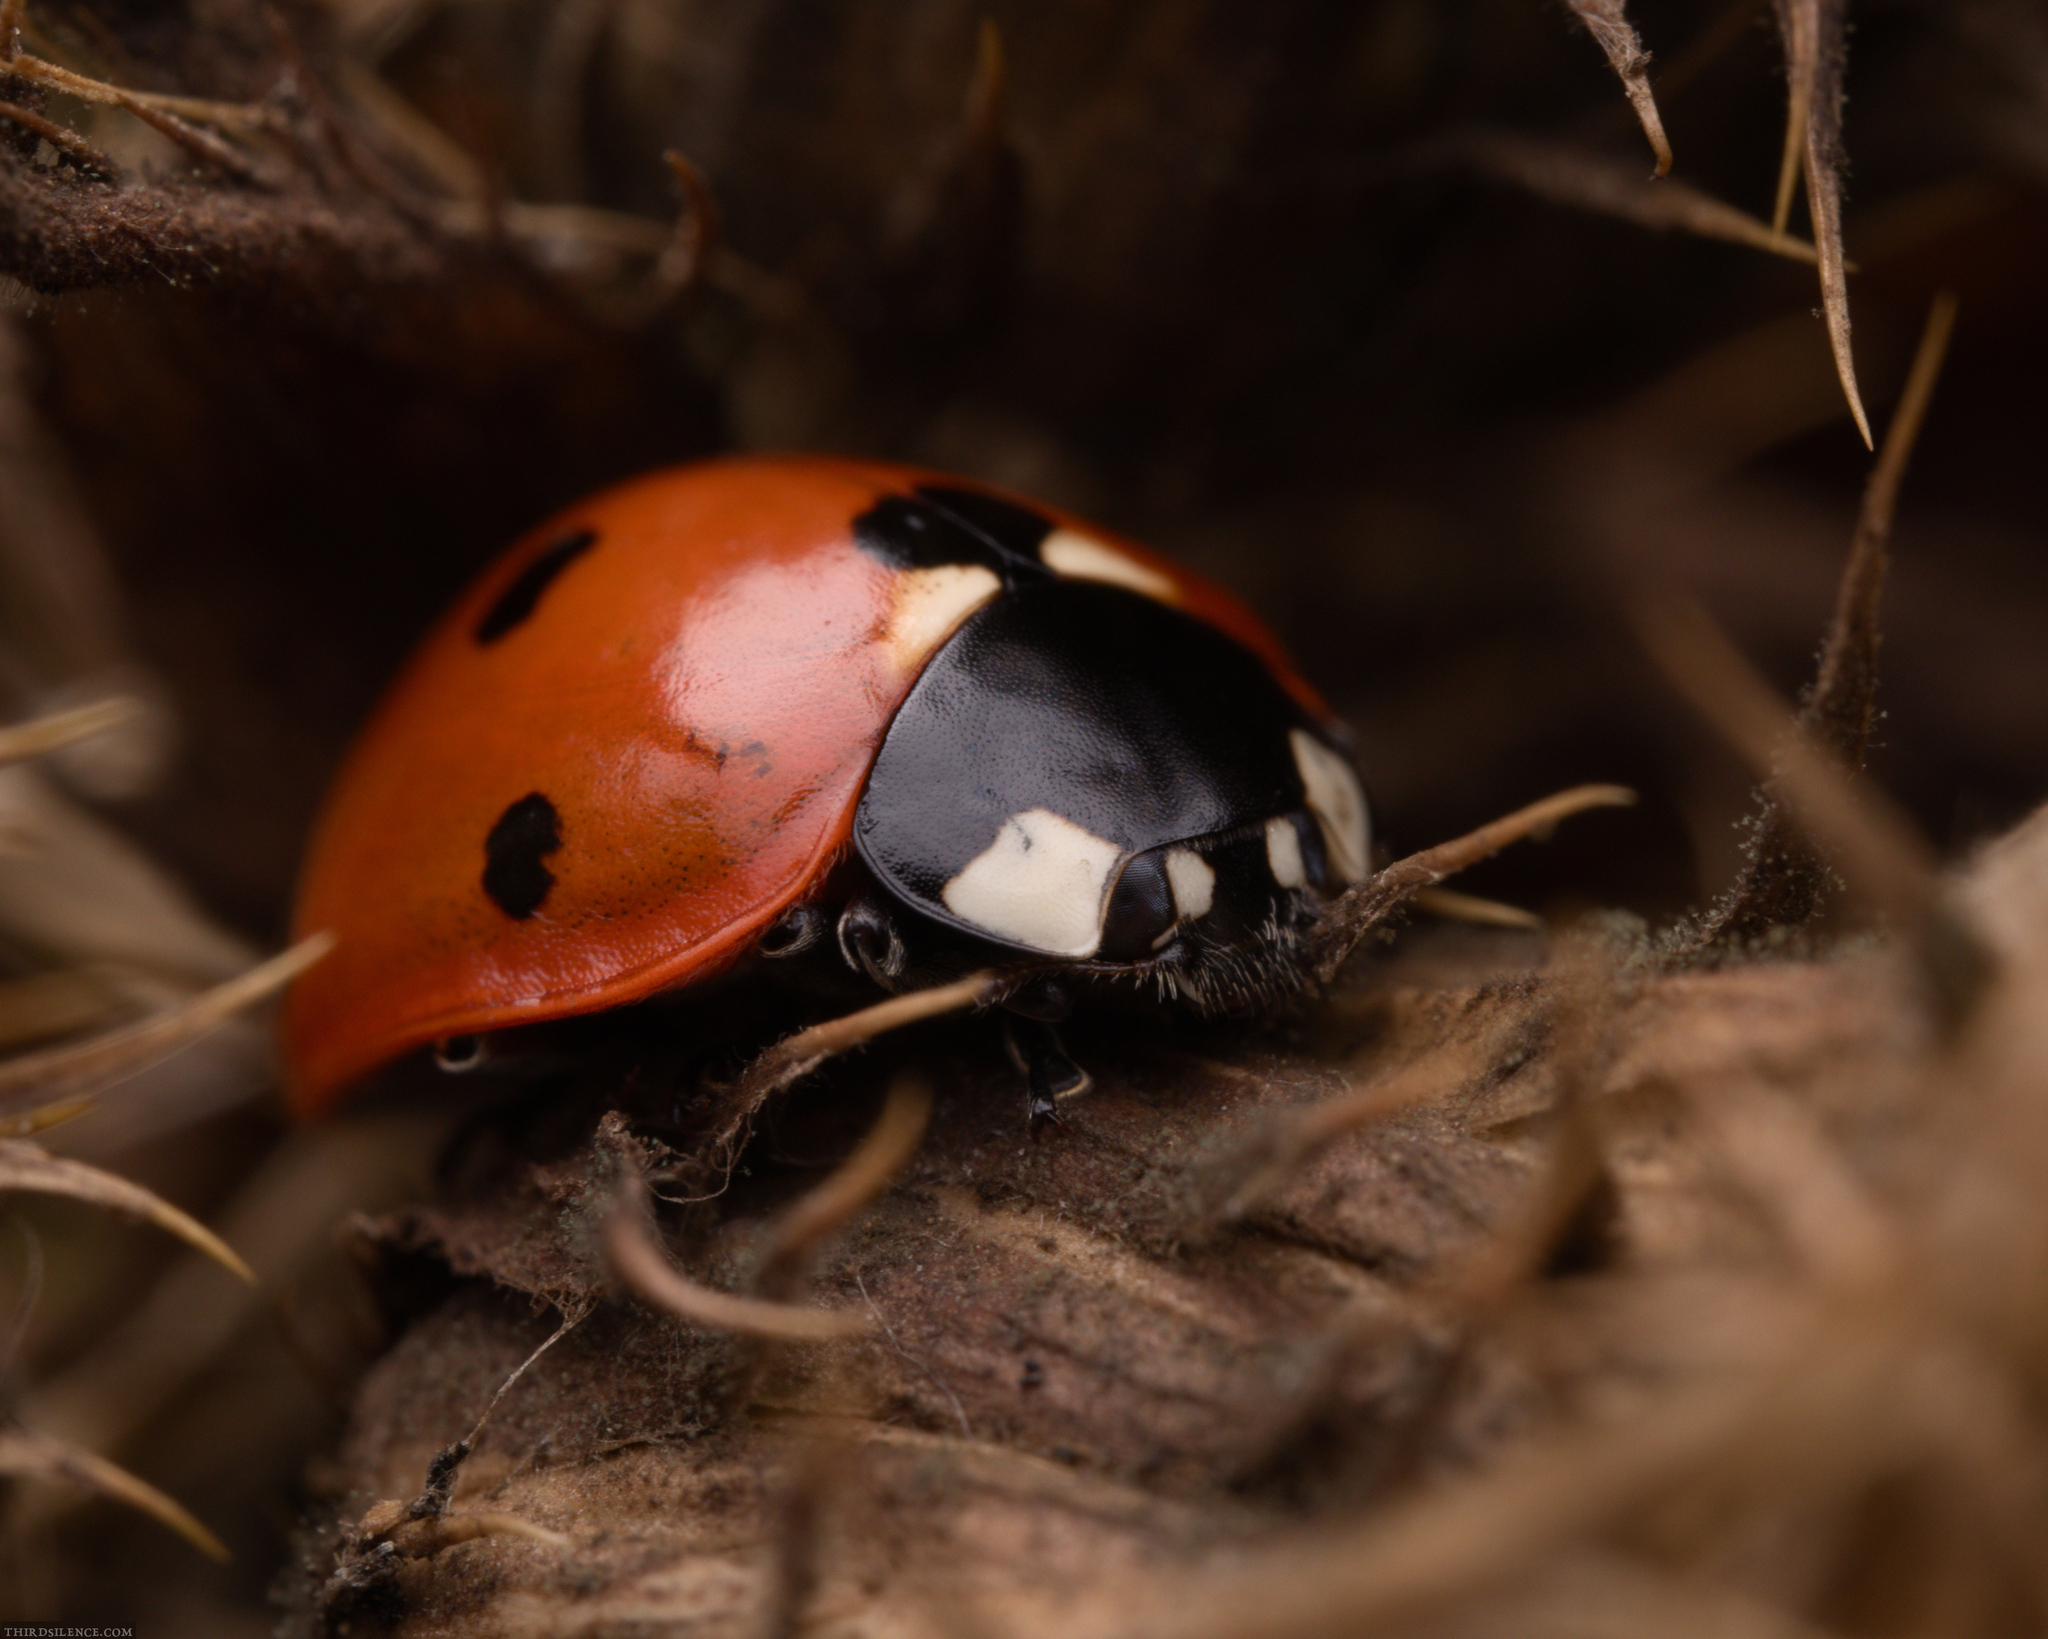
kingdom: Animalia
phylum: Arthropoda
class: Insecta
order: Coleoptera
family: Coccinellidae
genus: Coccinella
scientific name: Coccinella septempunctata
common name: Sevenspotted lady beetle
